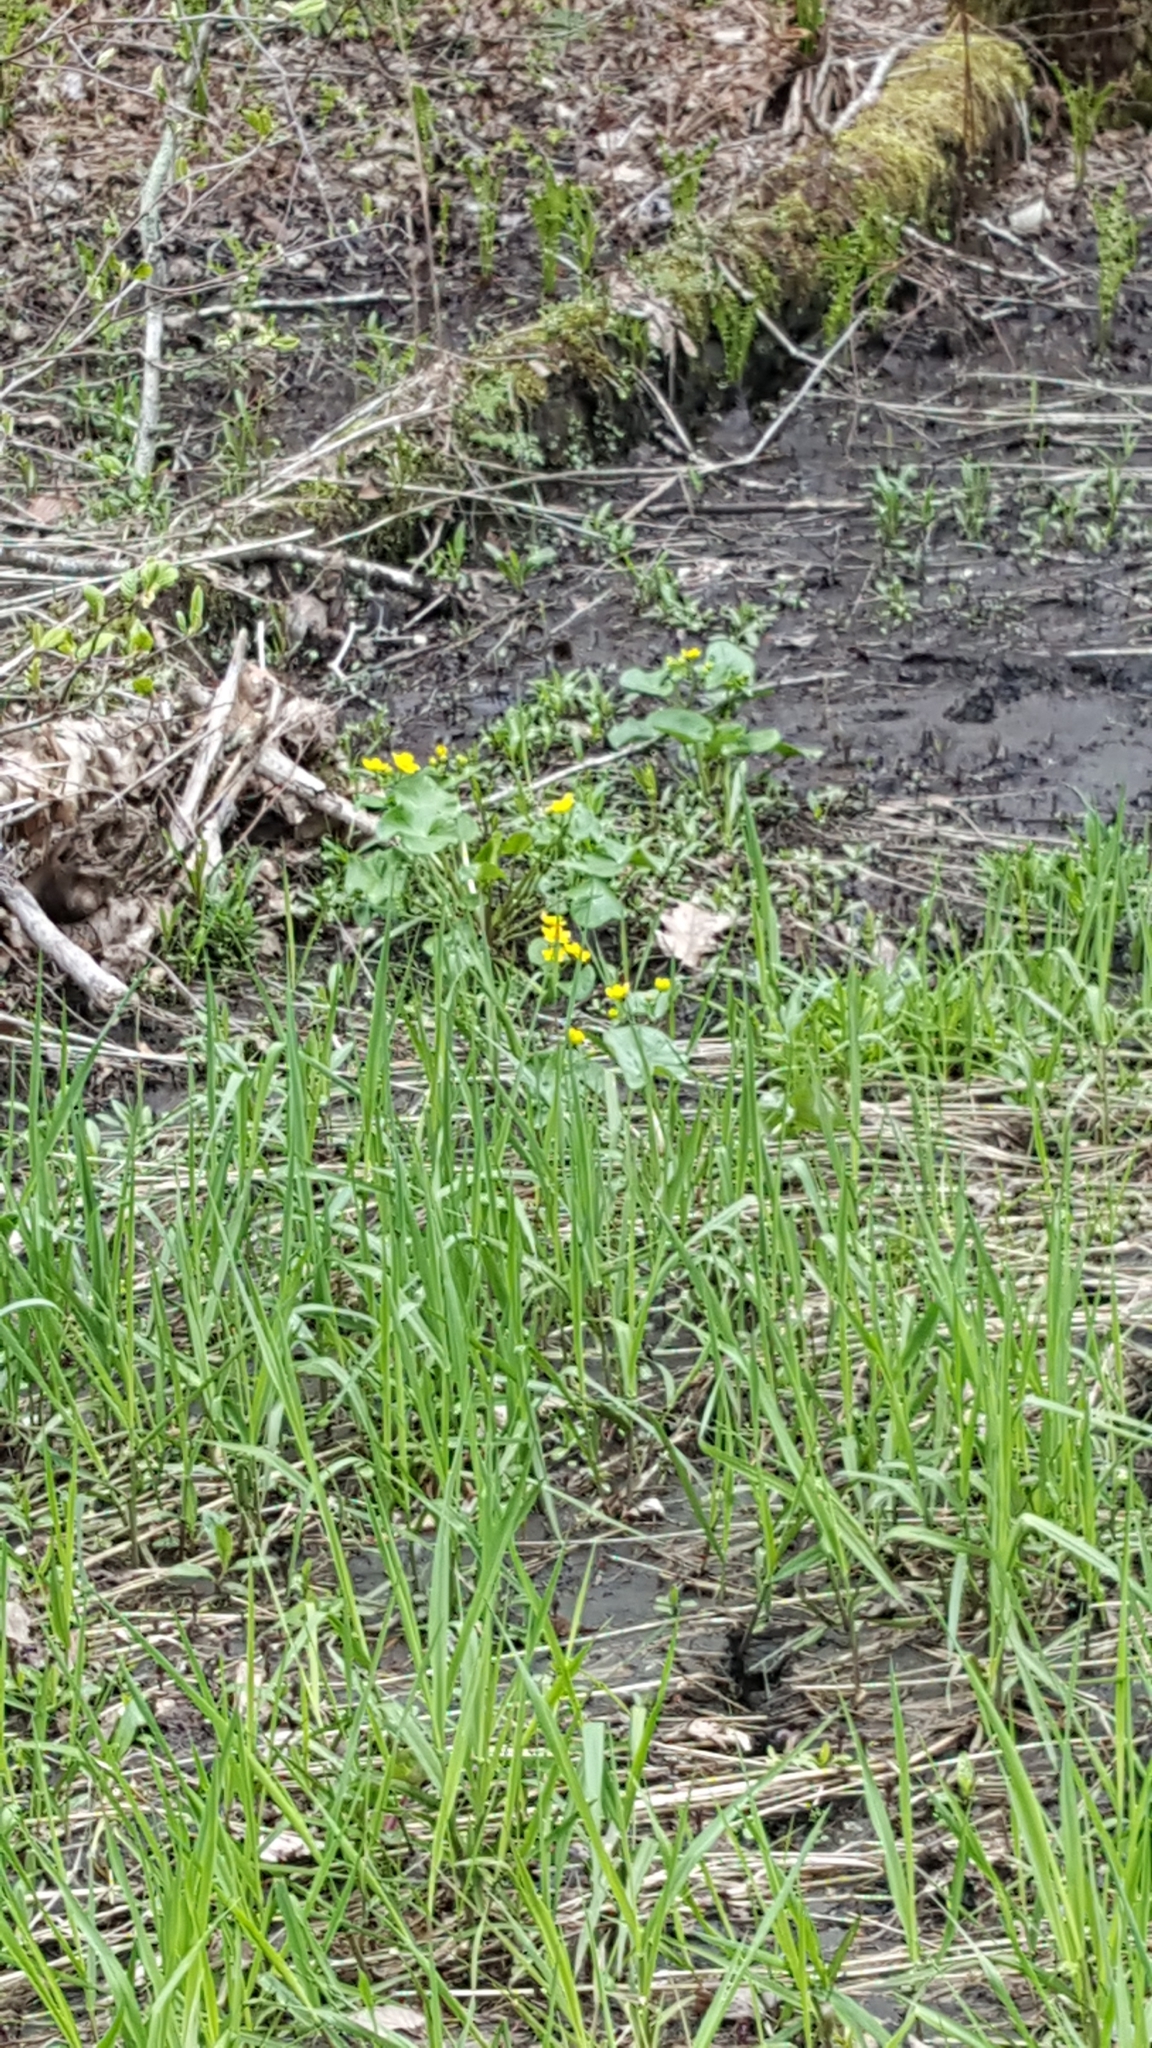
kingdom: Plantae
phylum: Tracheophyta
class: Magnoliopsida
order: Ranunculales
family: Ranunculaceae
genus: Caltha
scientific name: Caltha palustris
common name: Marsh marigold
